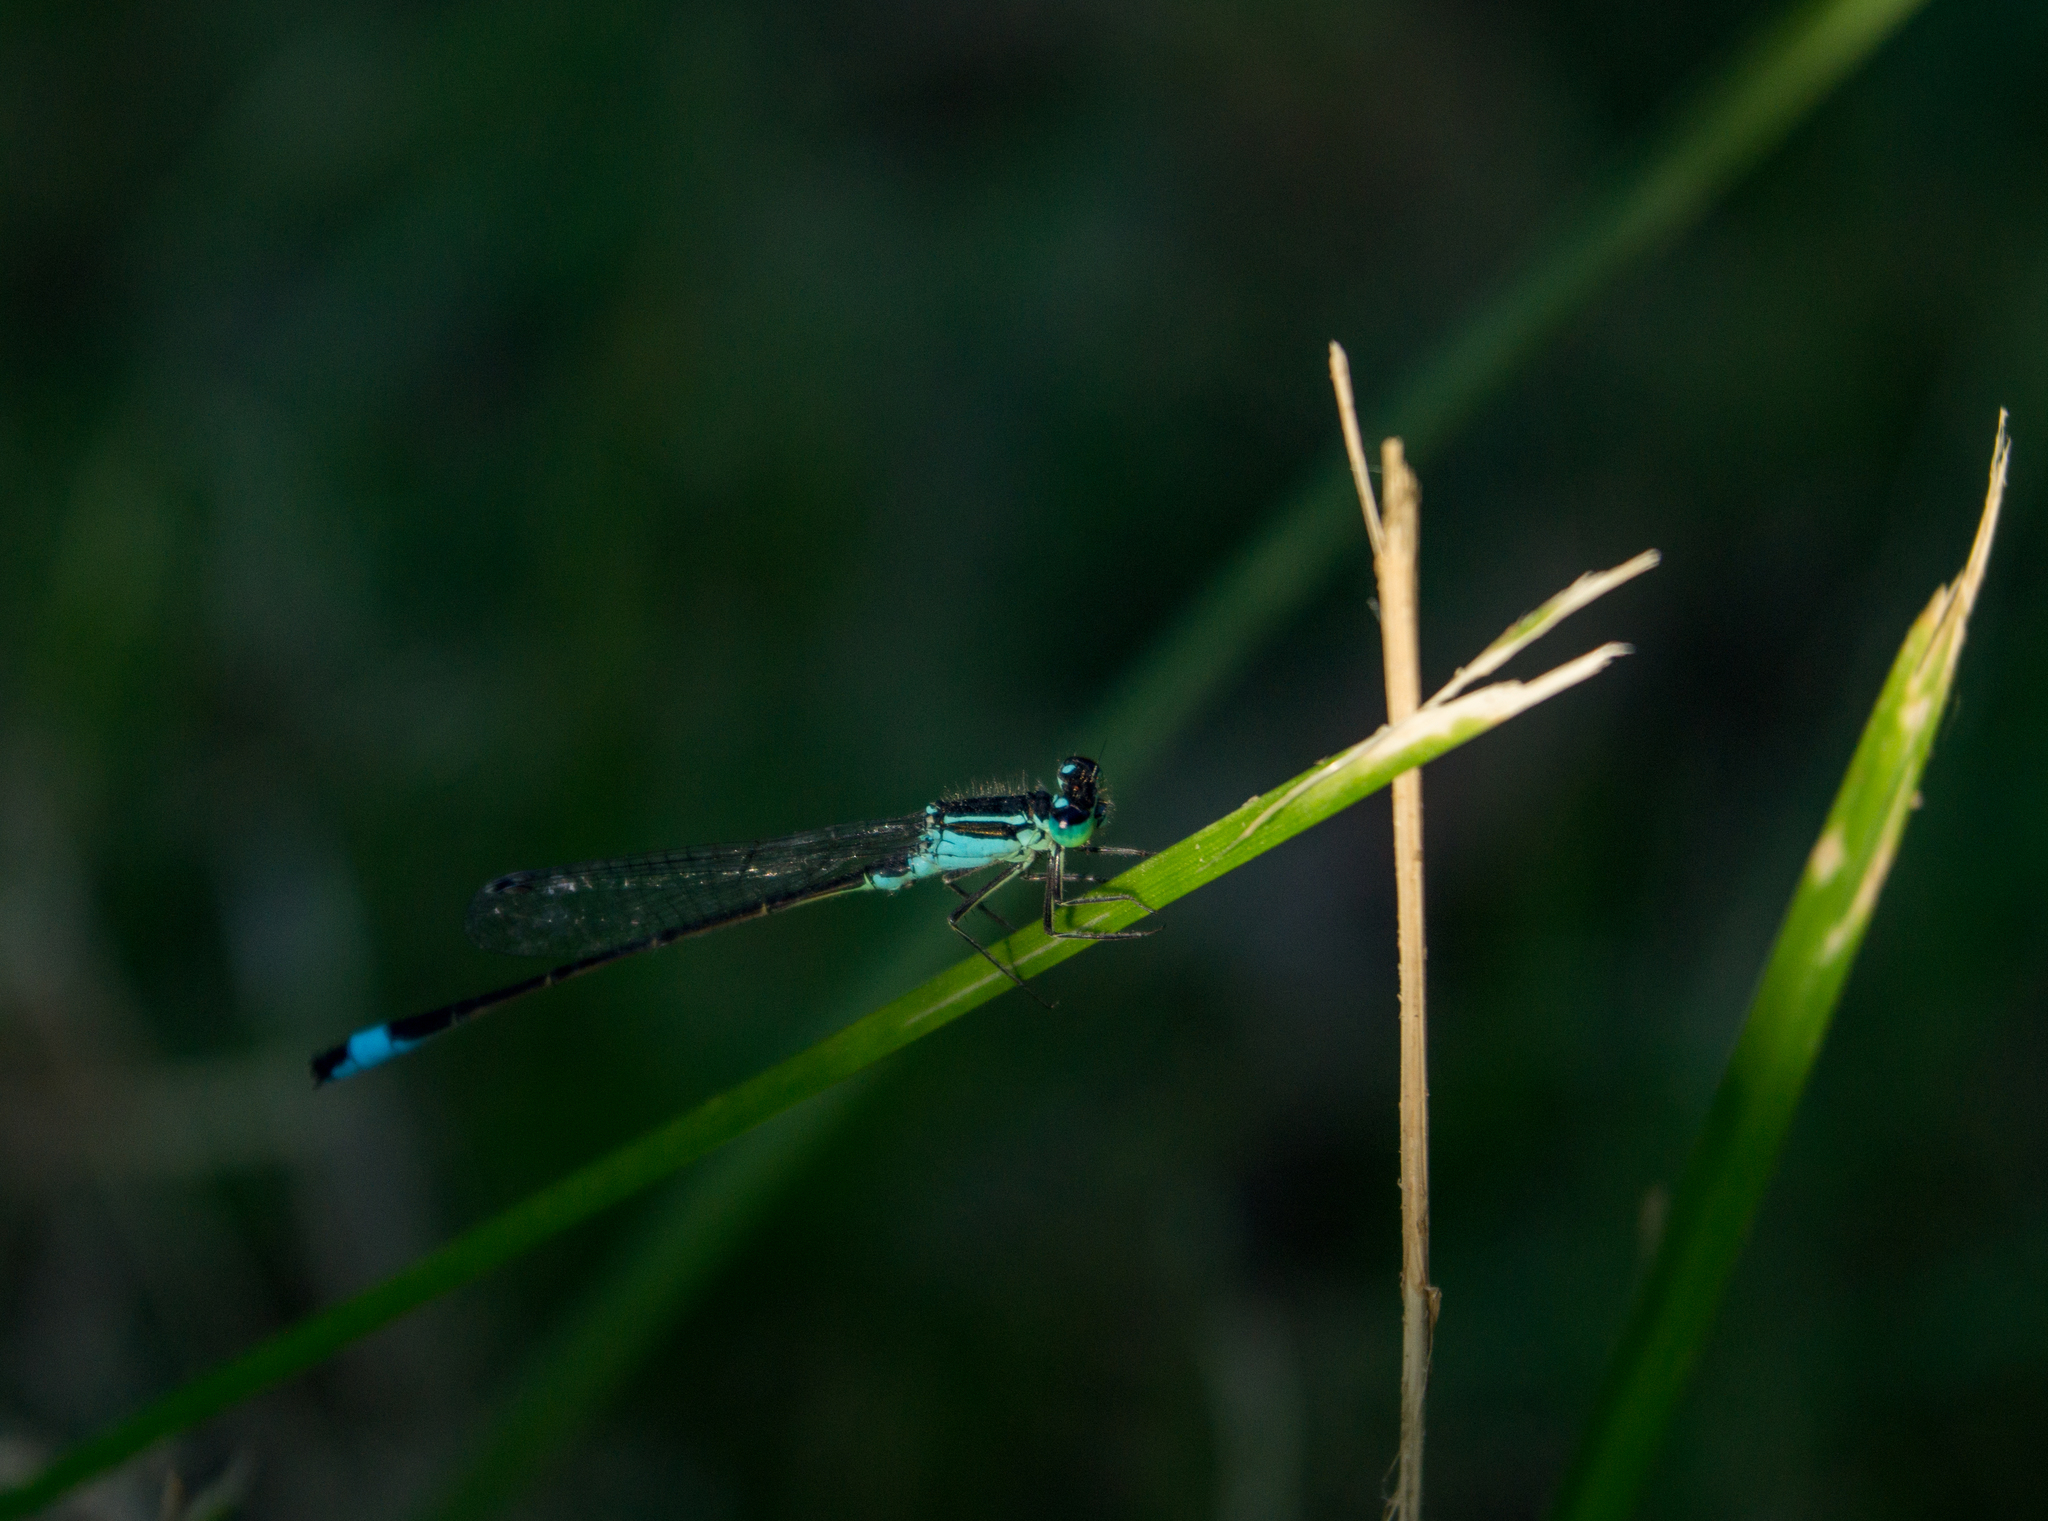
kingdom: Animalia
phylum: Arthropoda
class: Insecta
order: Odonata
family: Coenagrionidae
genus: Ischnura
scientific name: Ischnura elegans
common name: Blue-tailed damselfly
